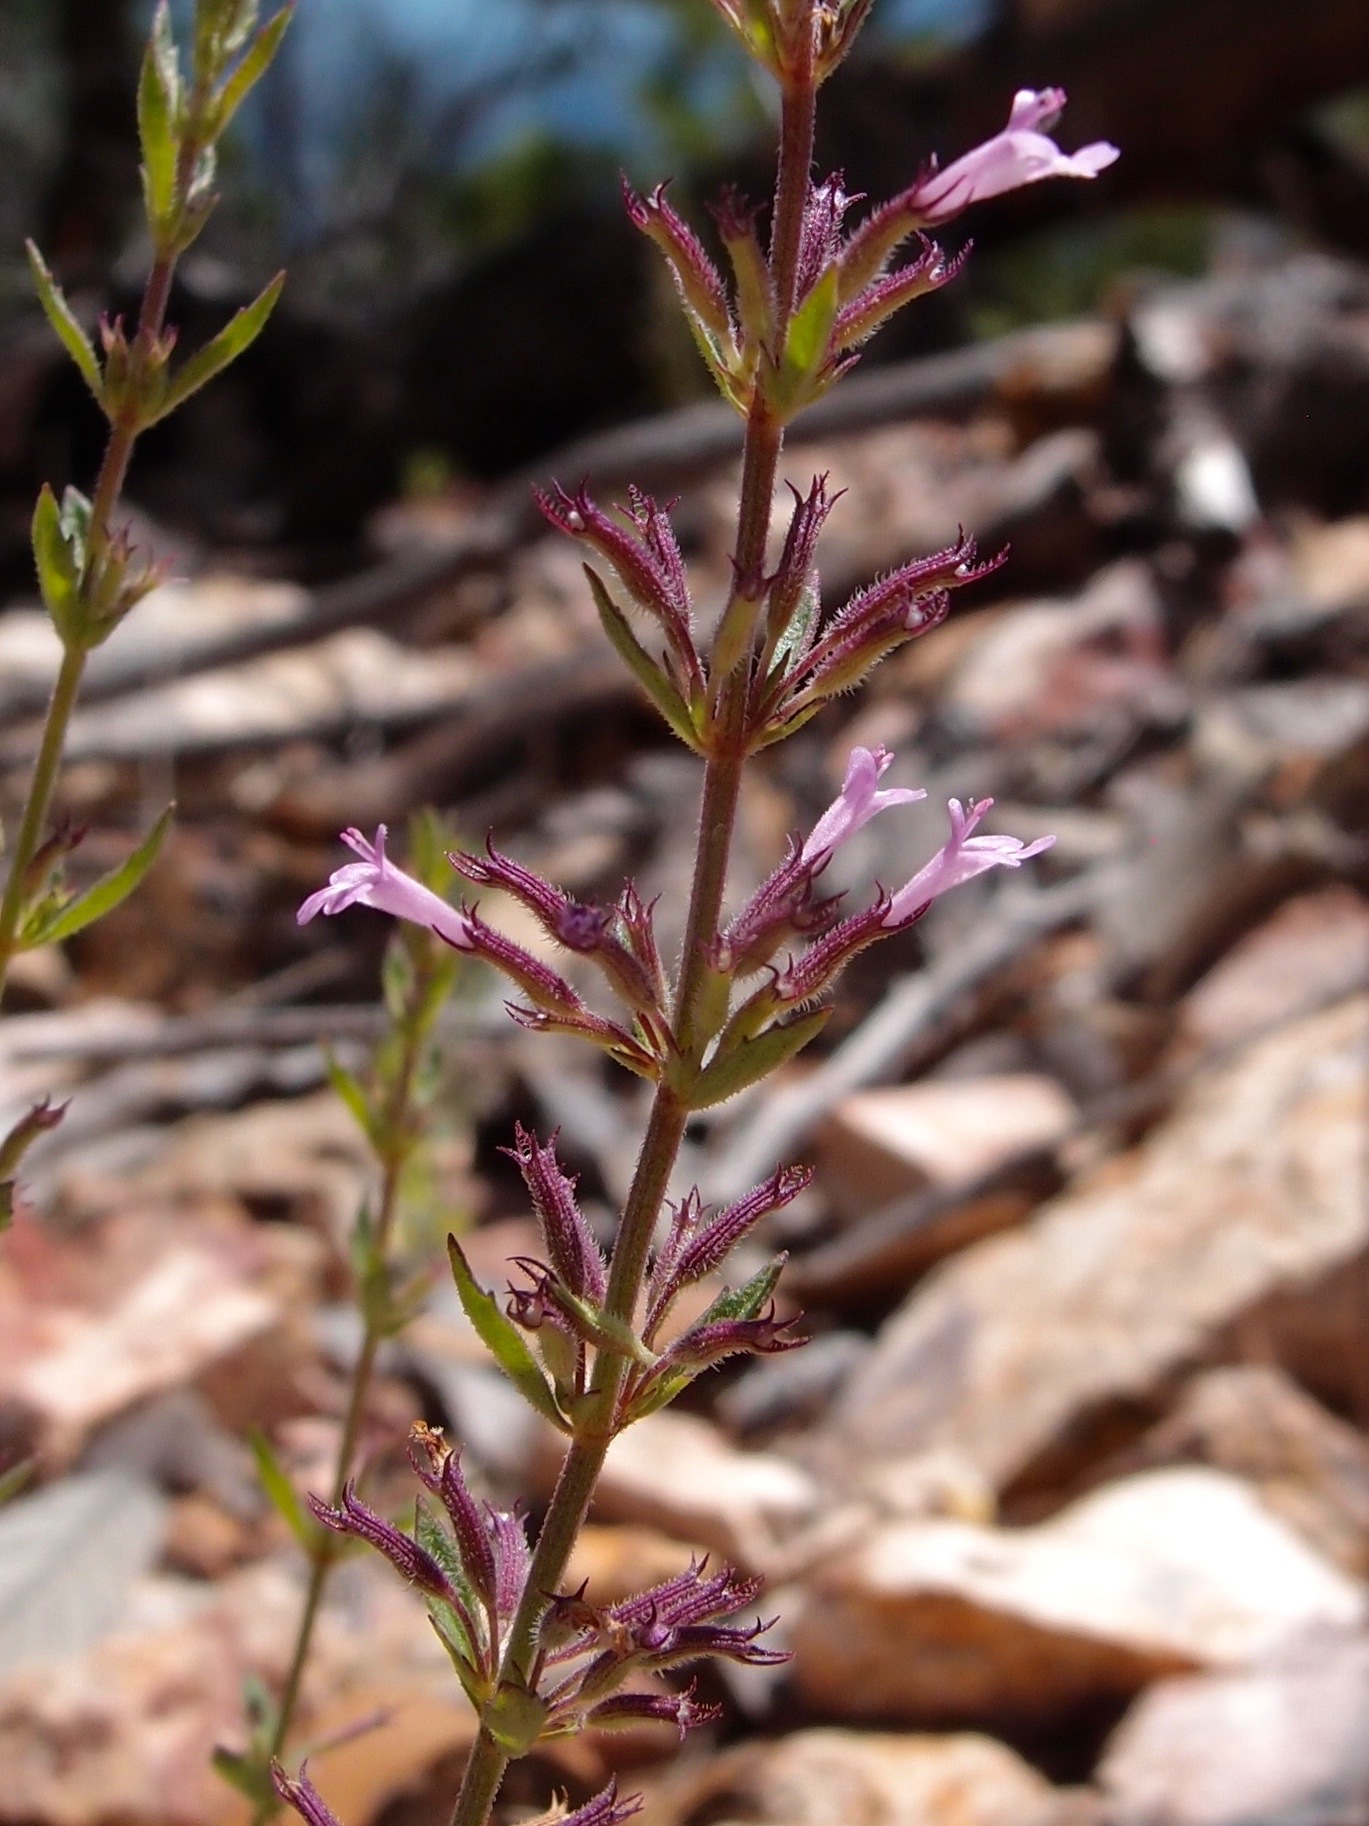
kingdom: Plantae
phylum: Tracheophyta
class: Magnoliopsida
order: Lamiales
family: Lamiaceae
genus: Hedeoma
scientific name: Hedeoma dentata
